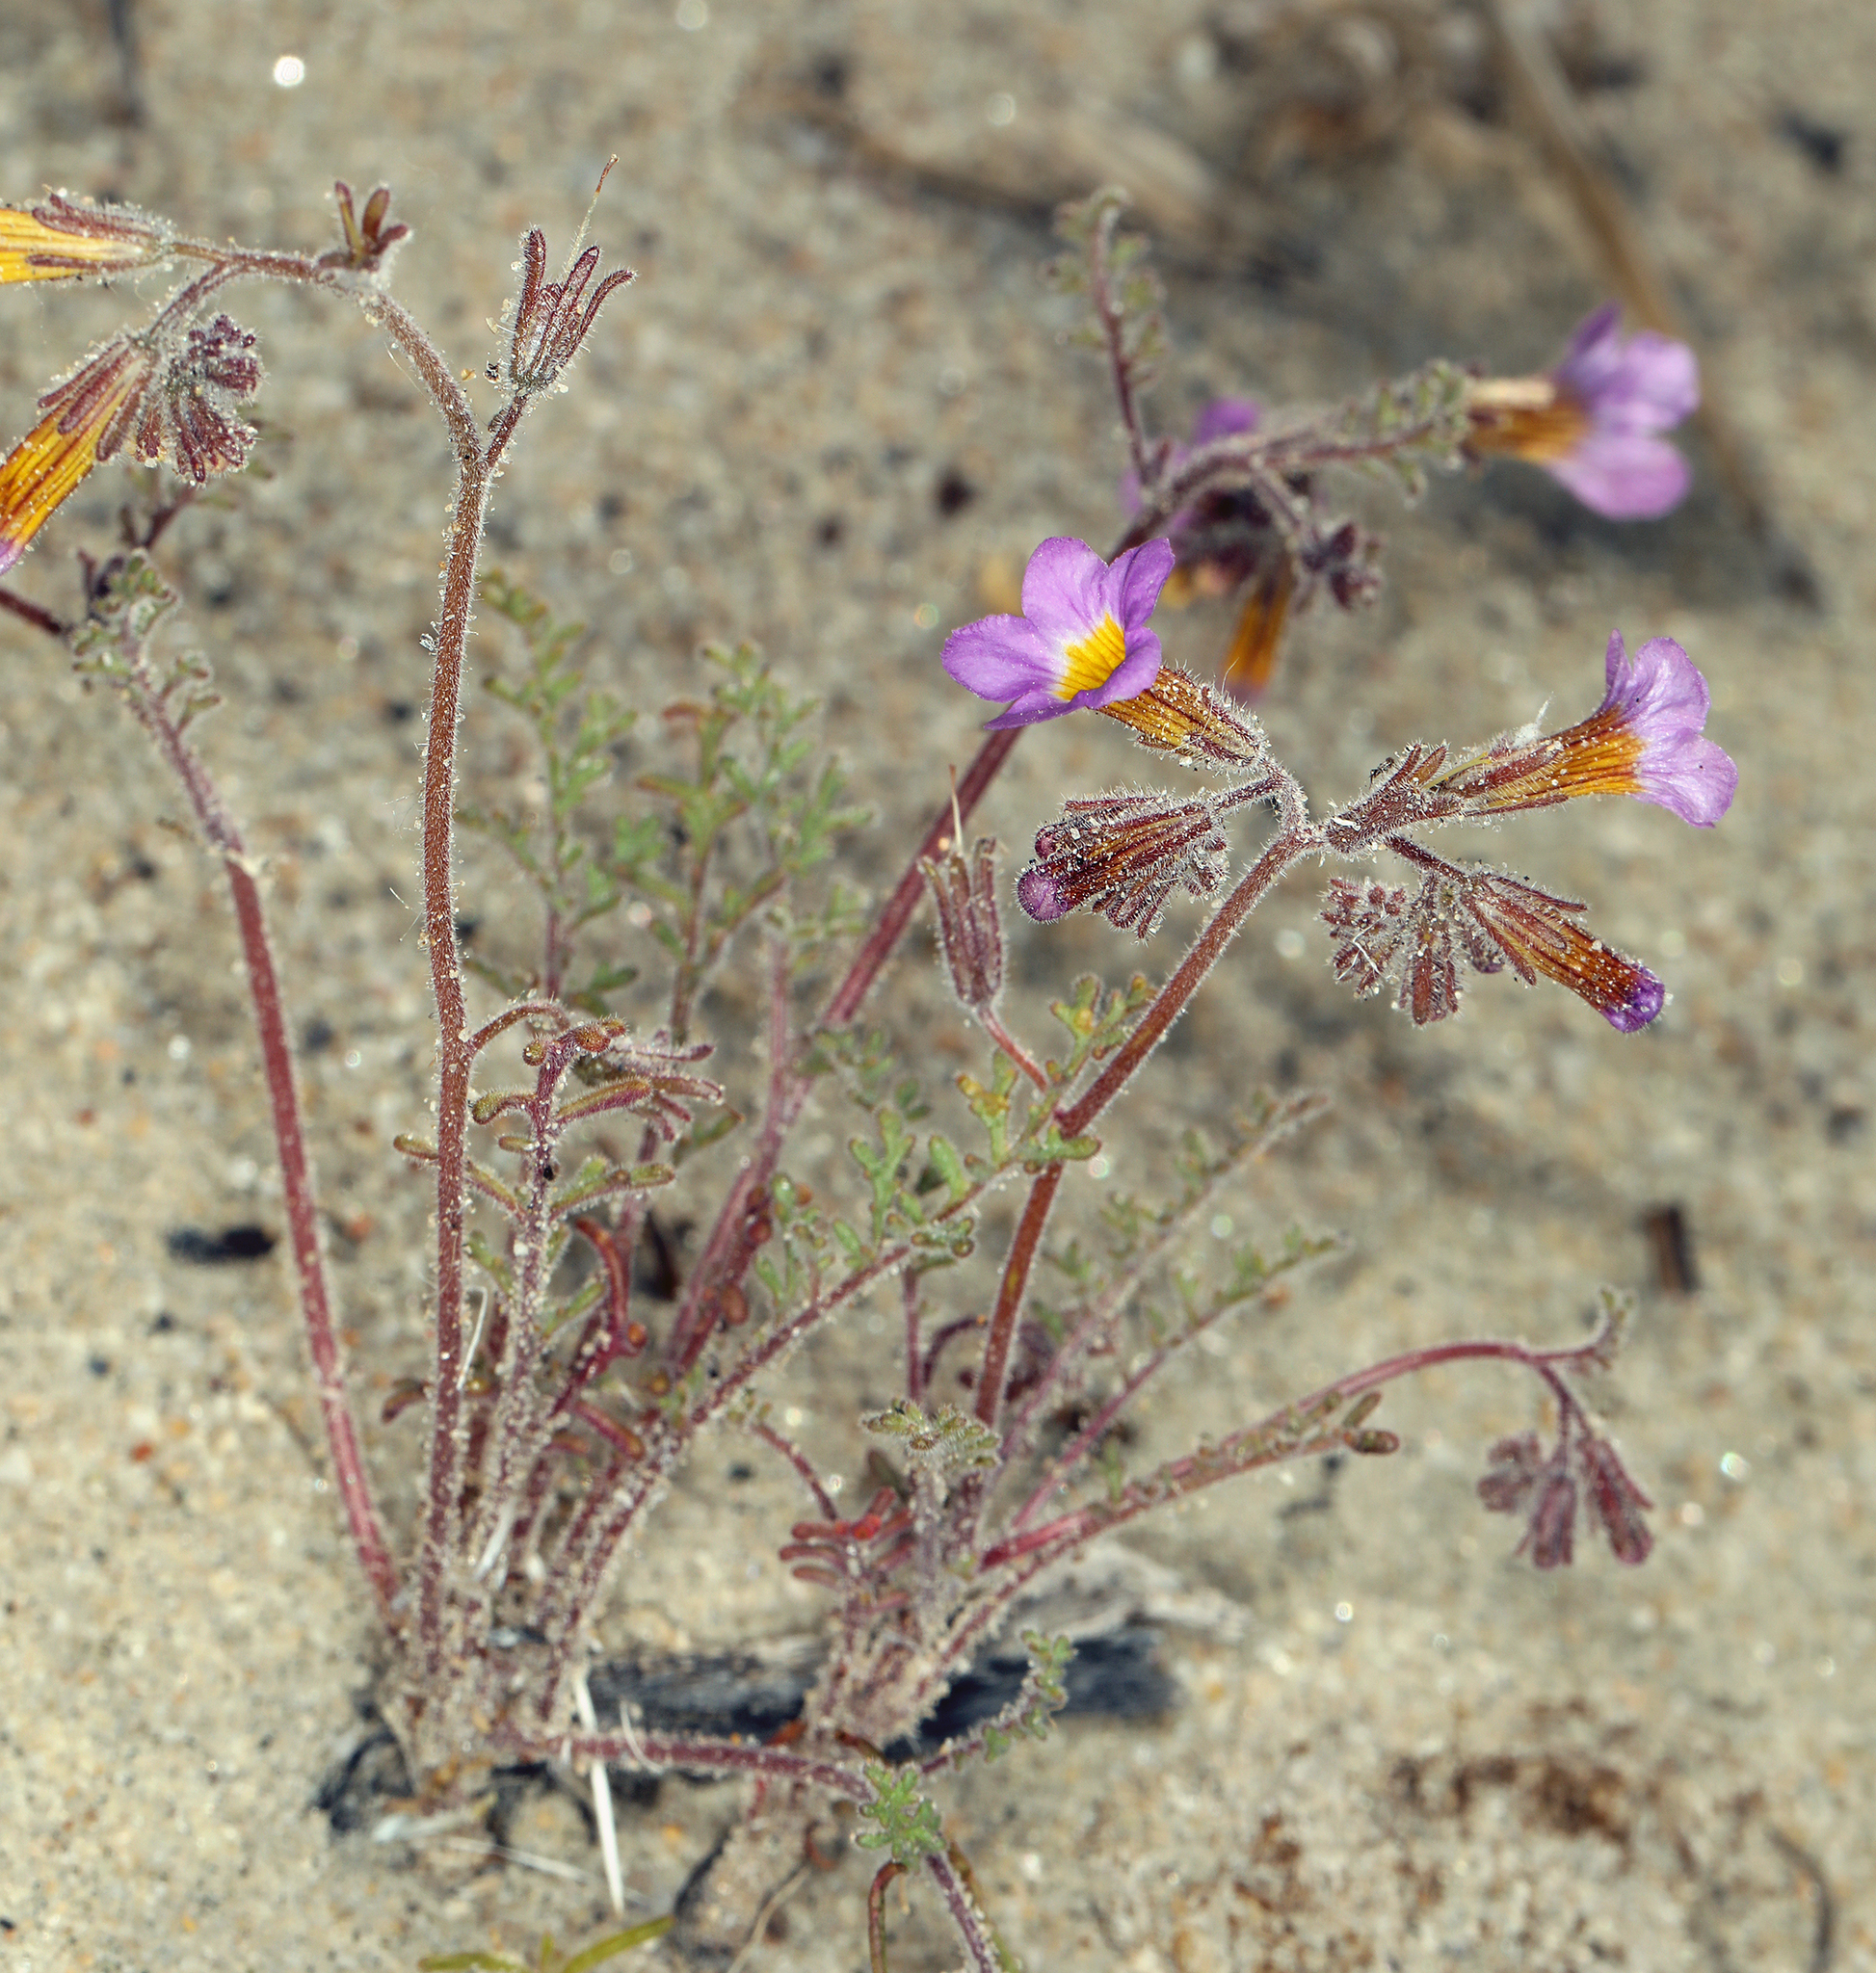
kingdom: Plantae
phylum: Tracheophyta
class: Magnoliopsida
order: Boraginales
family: Hydrophyllaceae
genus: Phacelia
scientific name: Phacelia bicolor
